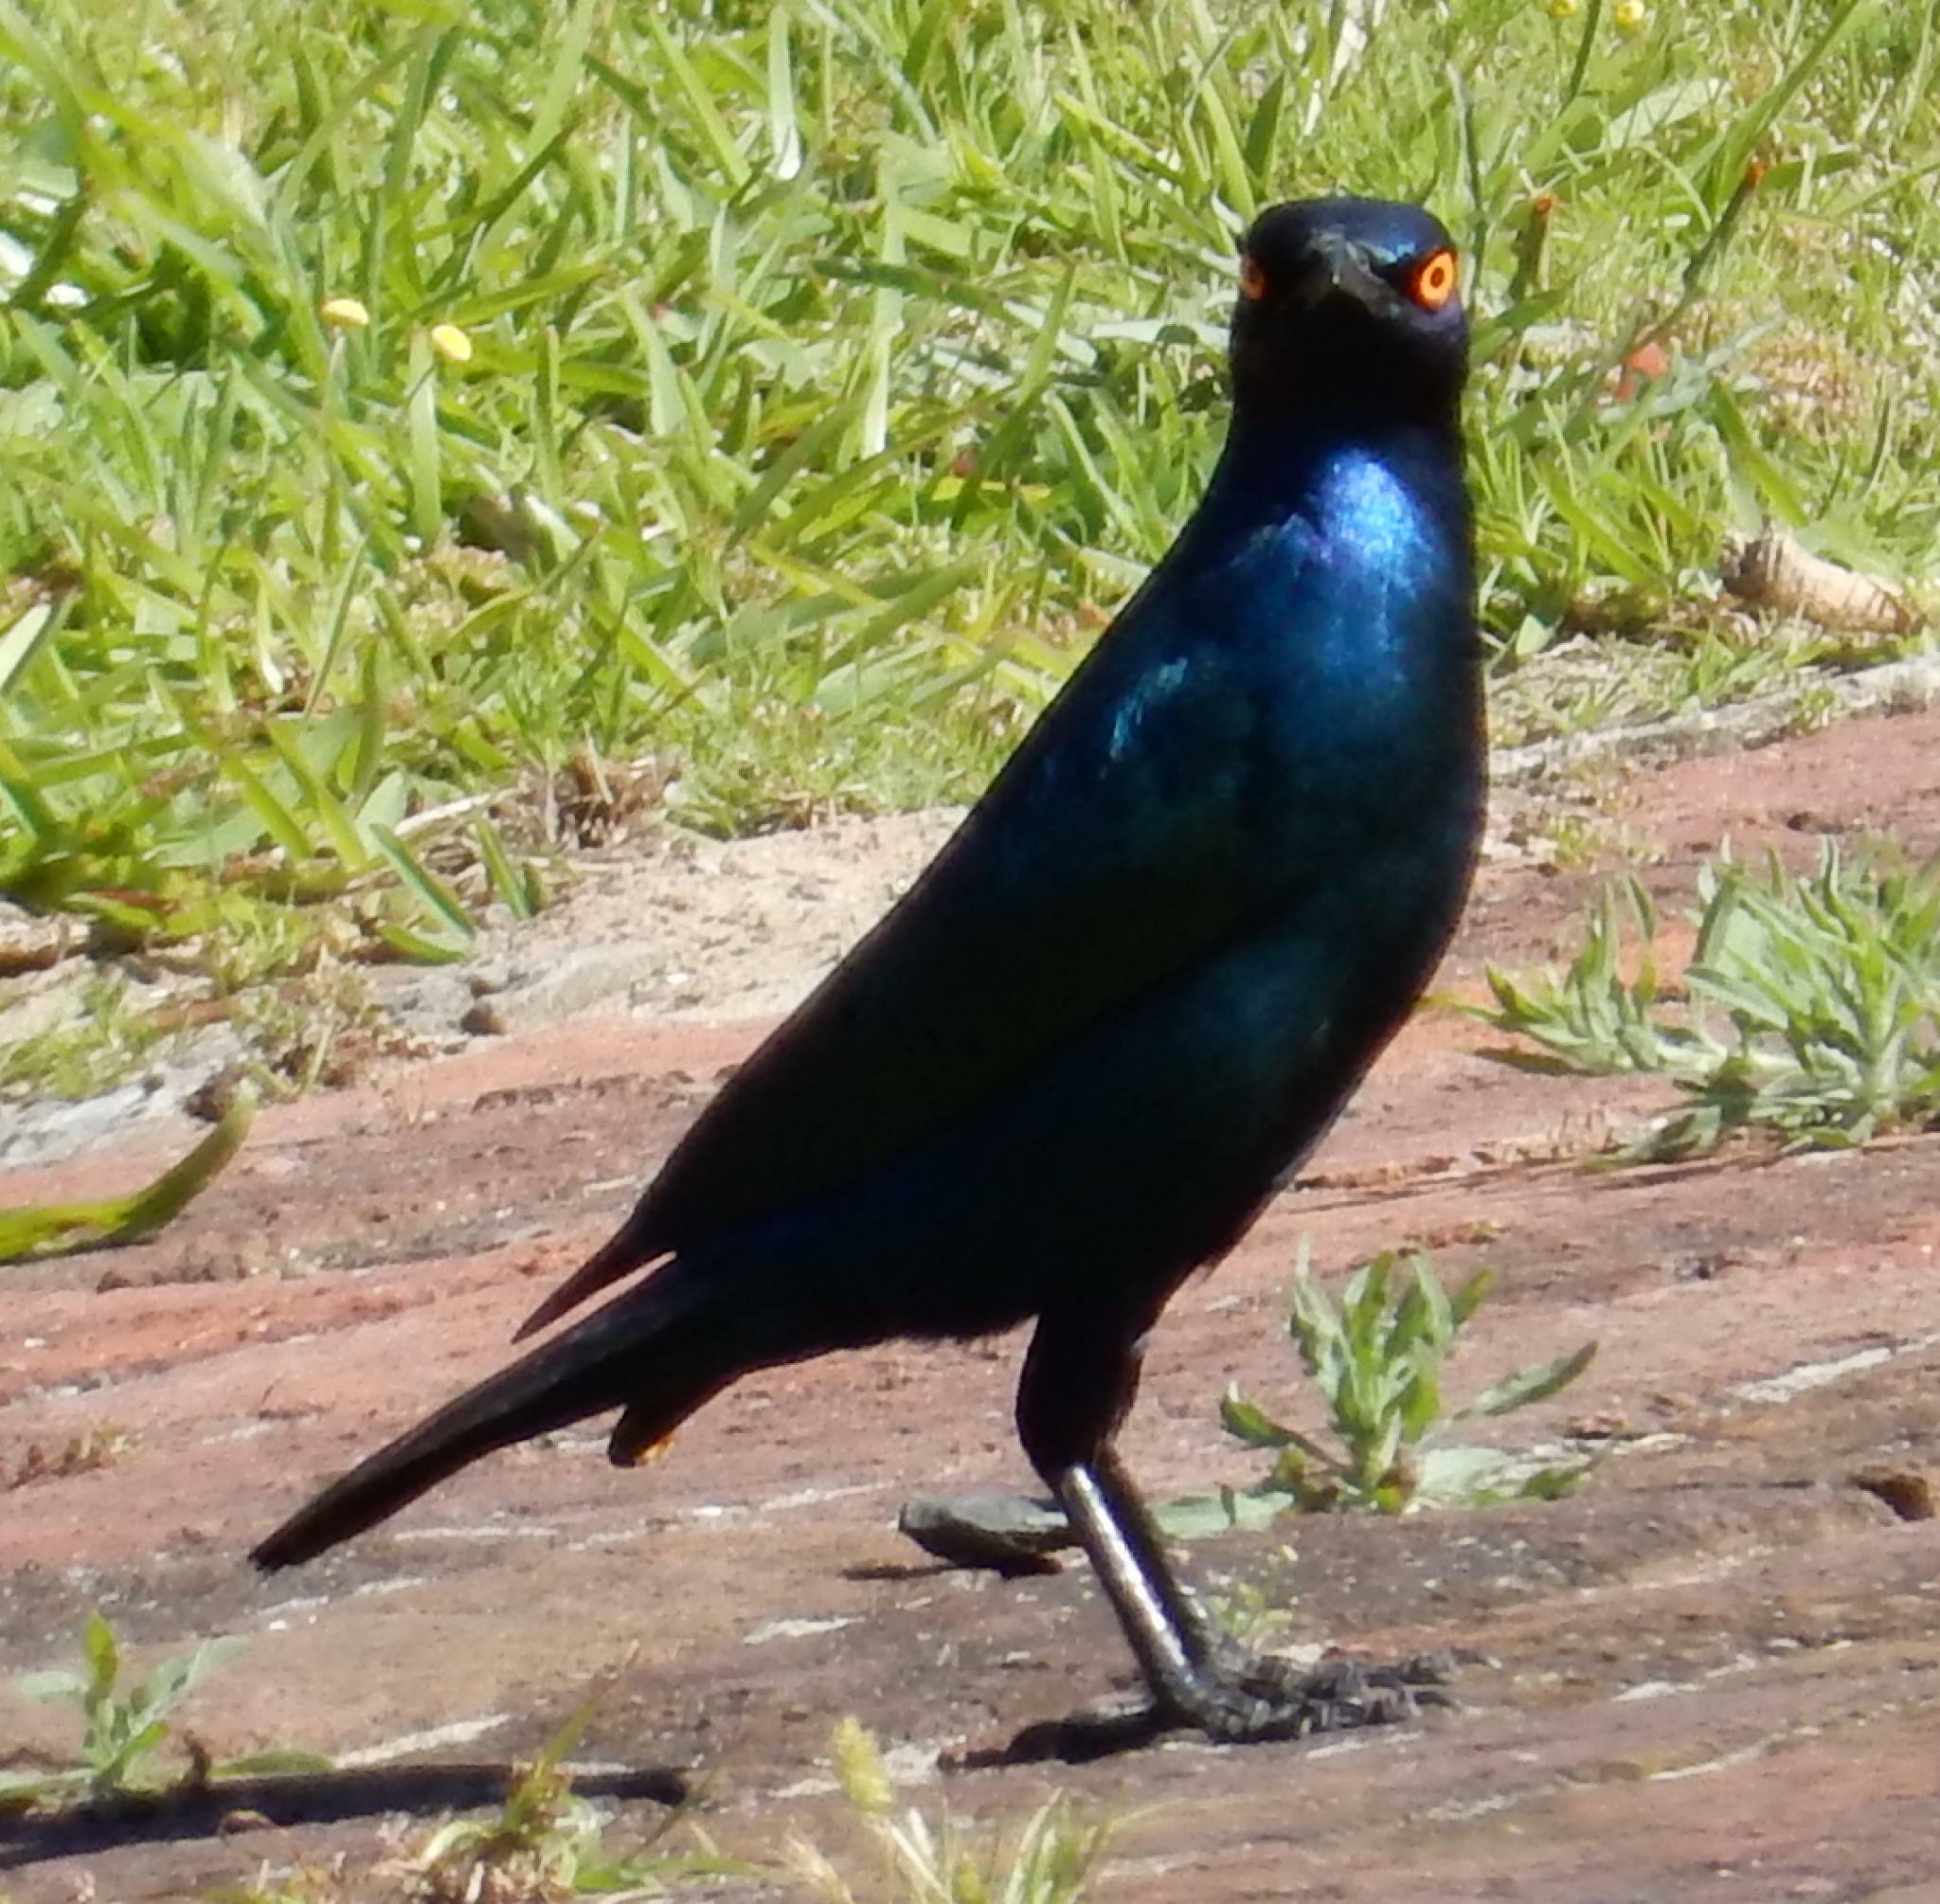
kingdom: Animalia
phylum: Chordata
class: Aves
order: Passeriformes
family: Sturnidae
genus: Lamprotornis
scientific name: Lamprotornis nitens
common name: Cape starling
